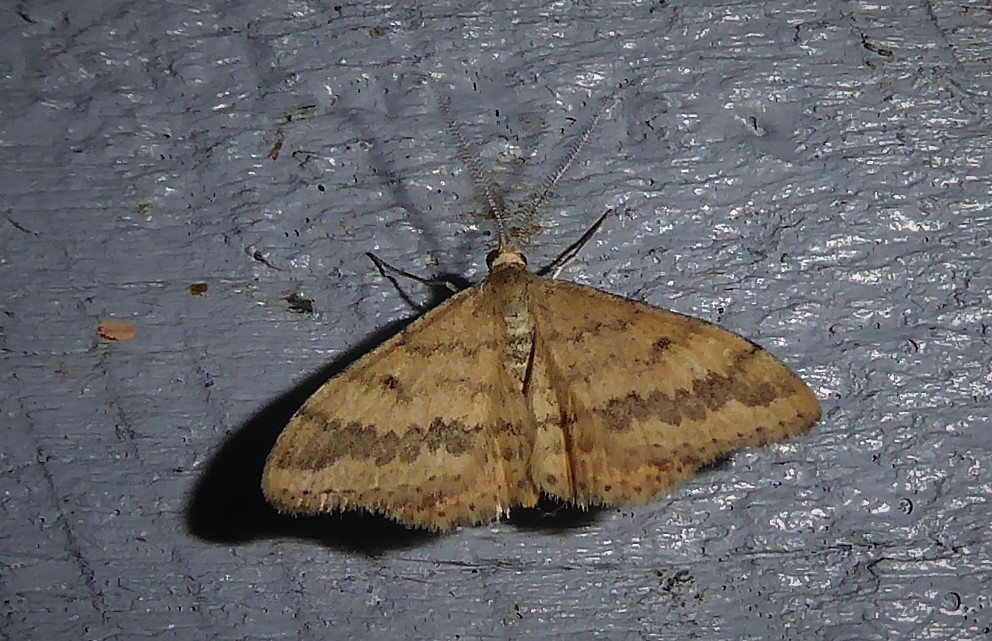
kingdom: Animalia
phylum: Arthropoda
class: Insecta
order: Lepidoptera
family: Geometridae
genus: Scopula
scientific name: Scopula rubraria
